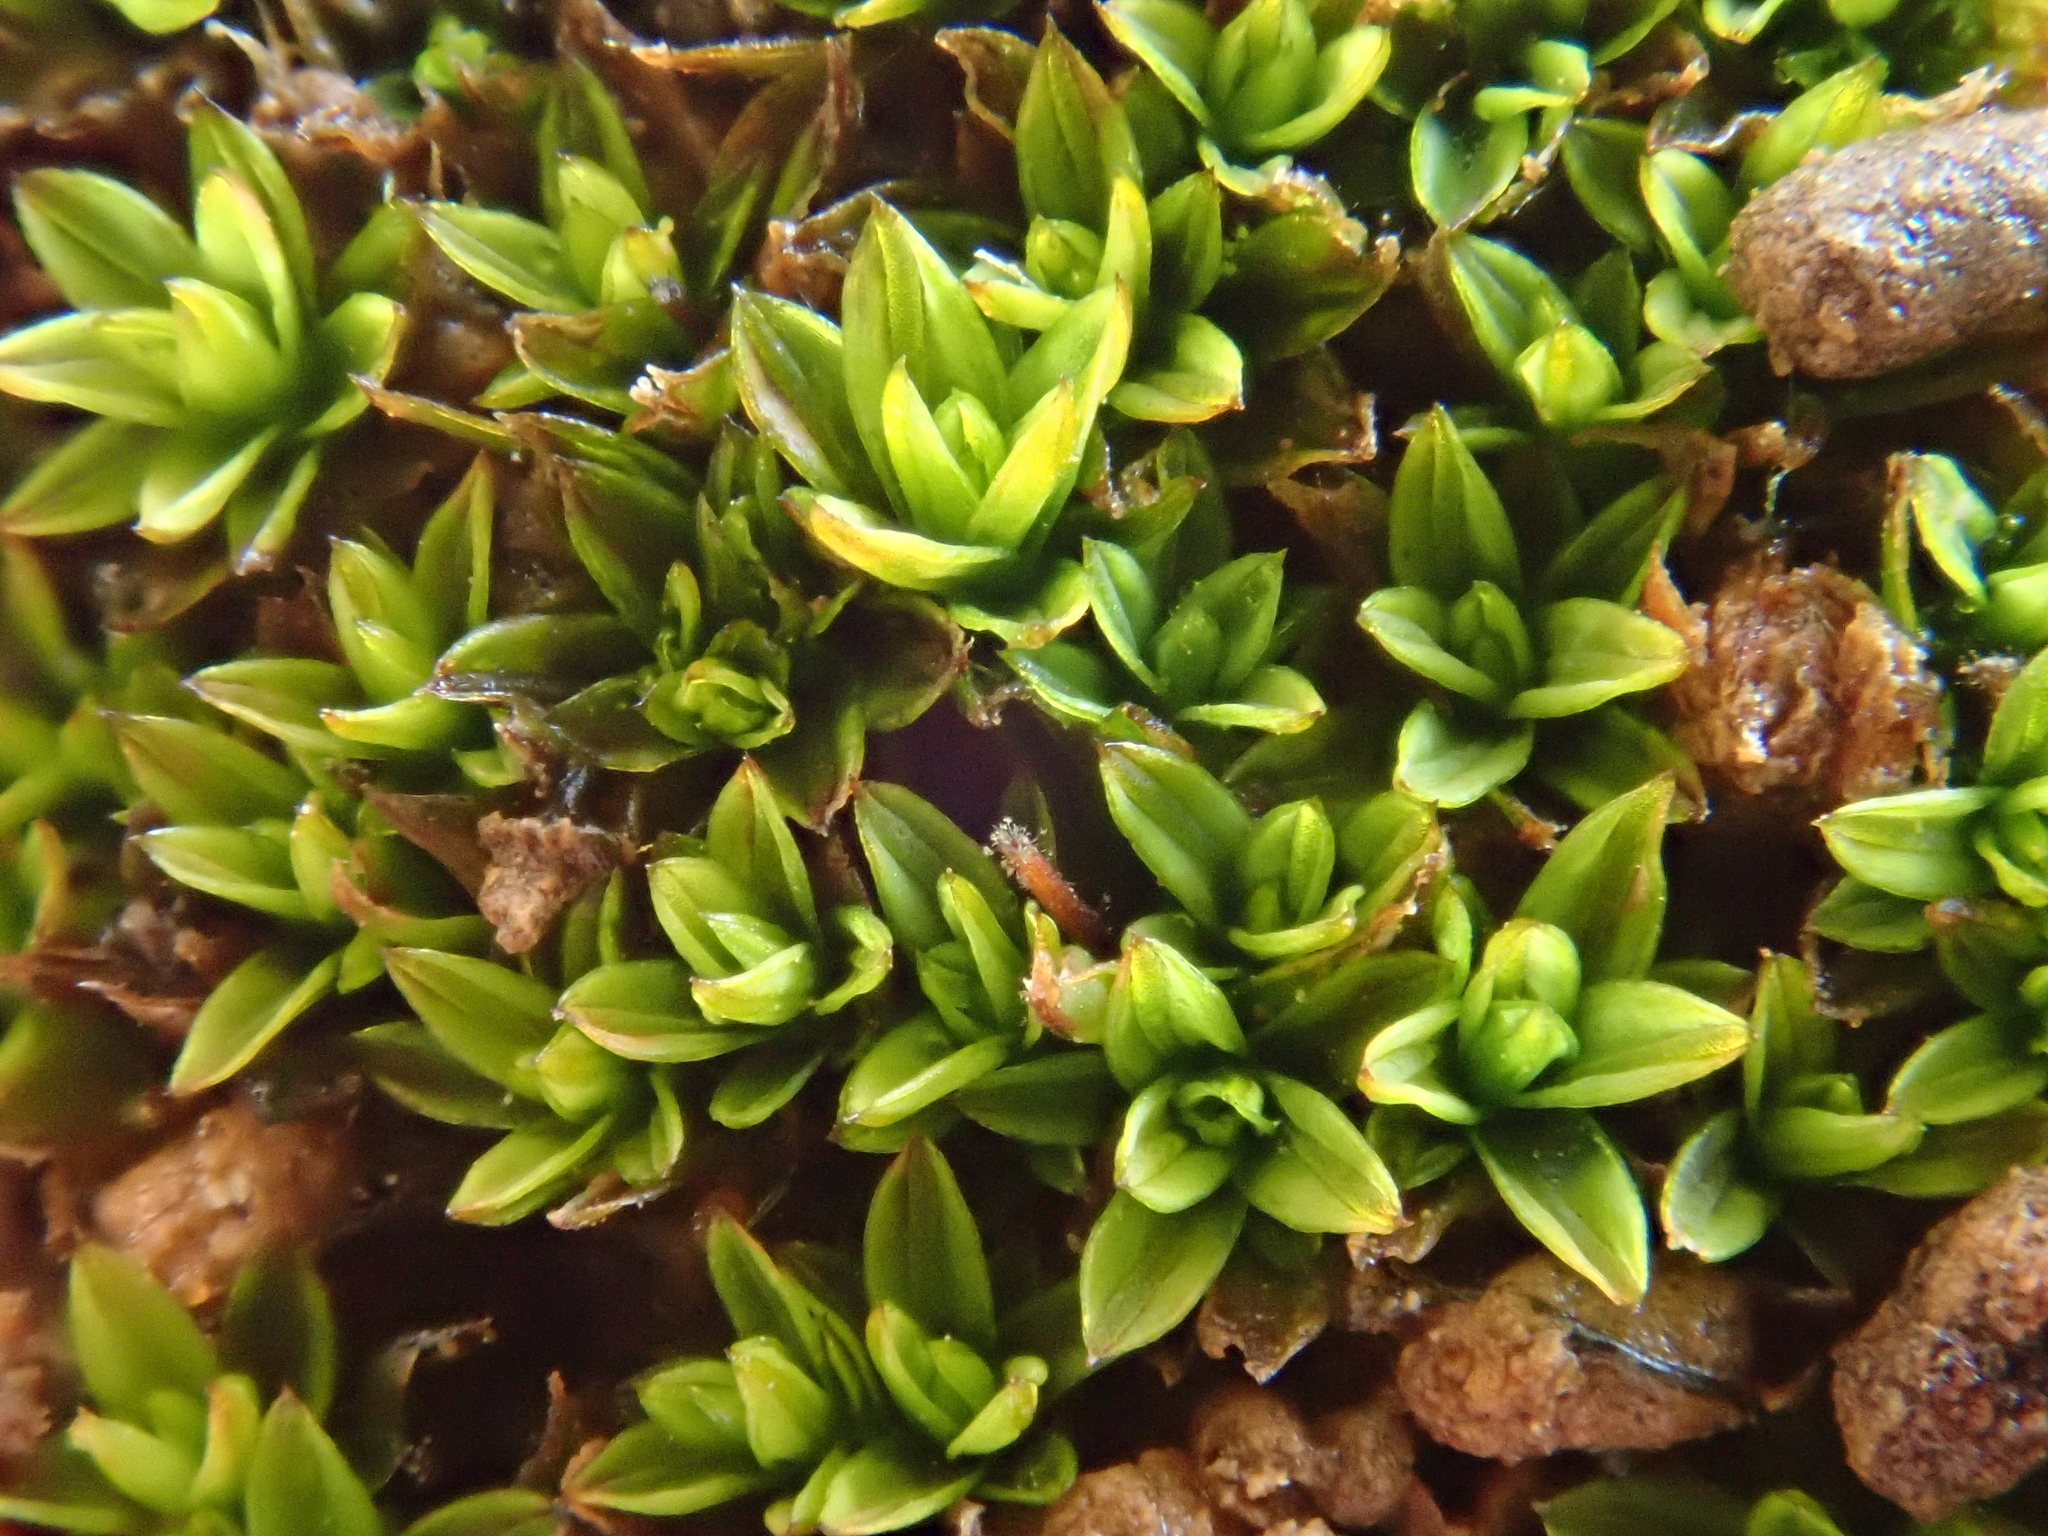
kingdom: Plantae
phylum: Bryophyta
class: Bryopsida
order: Pottiales
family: Pottiaceae
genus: Tortula
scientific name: Tortula atrovirens
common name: Rib-leaf moss
